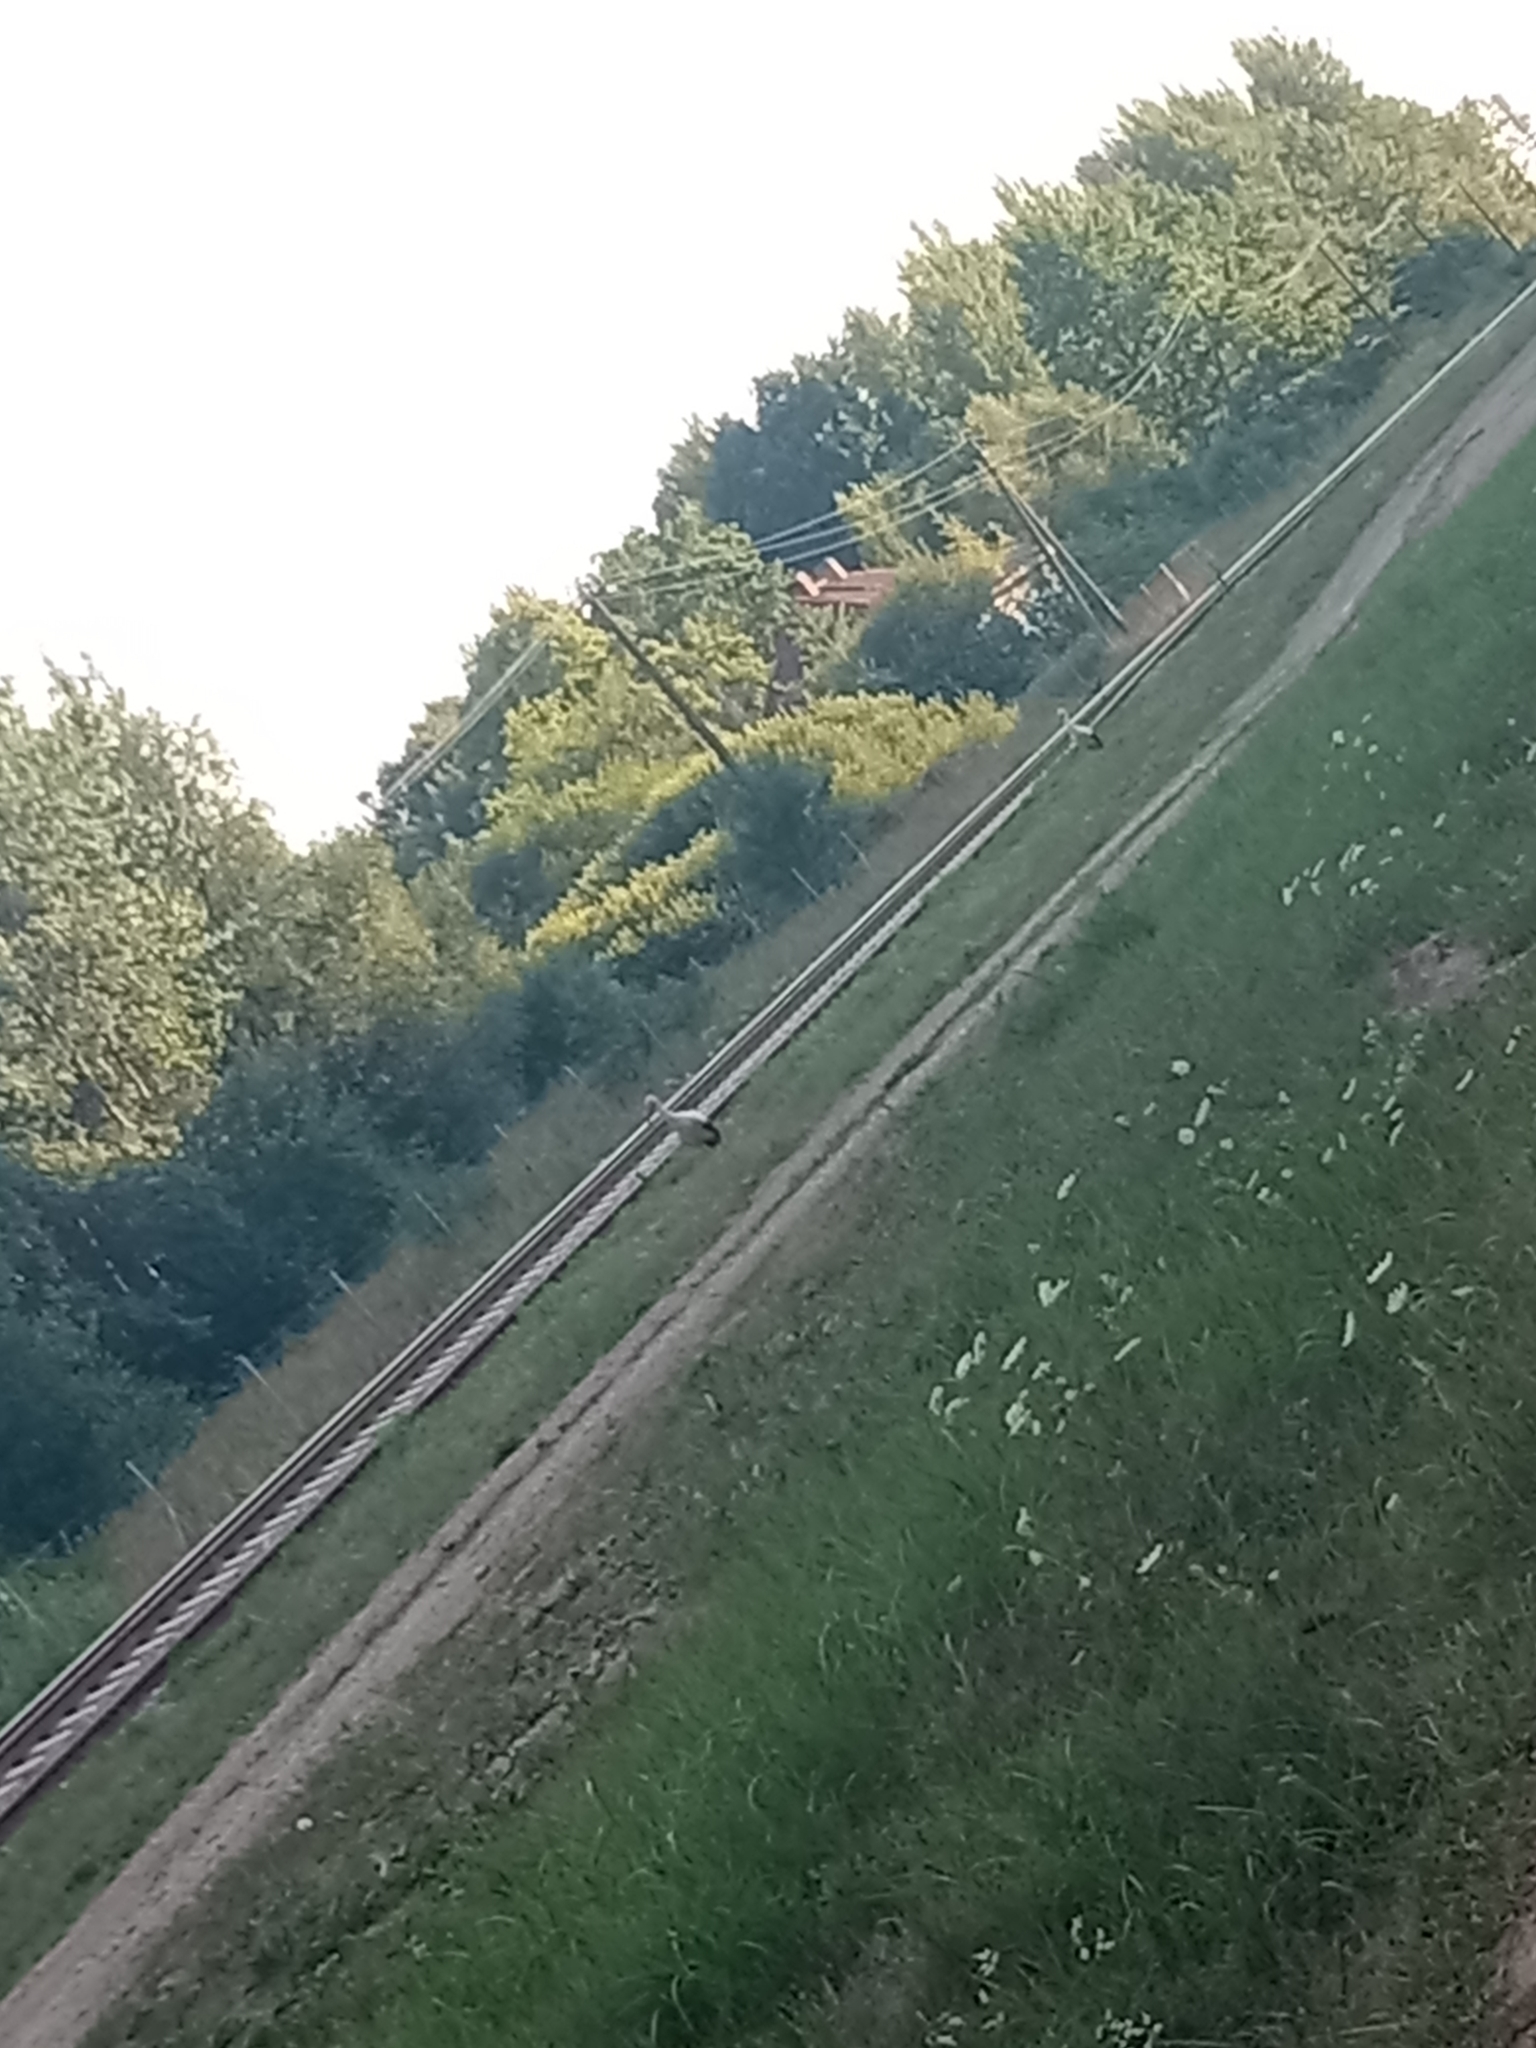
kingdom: Animalia
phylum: Chordata
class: Aves
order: Ciconiiformes
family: Ciconiidae
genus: Ciconia
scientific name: Ciconia ciconia
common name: White stork
